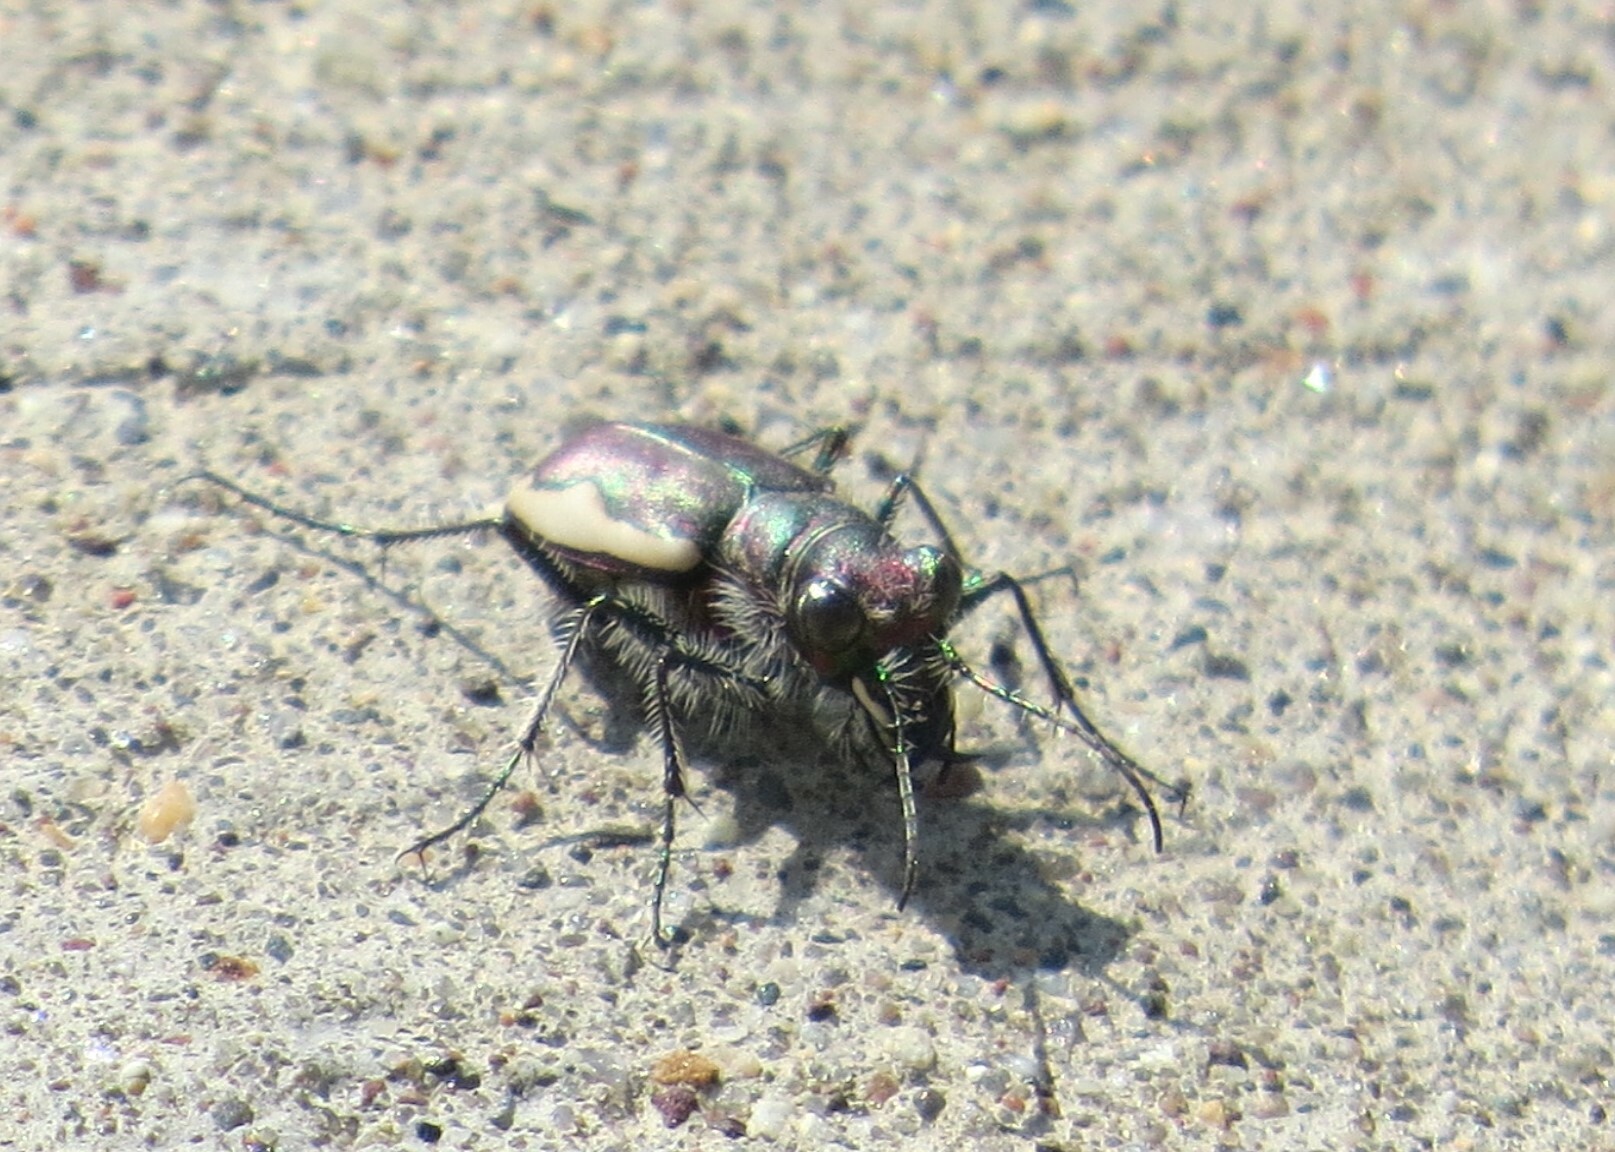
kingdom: Animalia
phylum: Arthropoda
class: Insecta
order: Coleoptera
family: Carabidae
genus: Cicindela
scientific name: Cicindela scutellaris
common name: Festive tiger beetle
